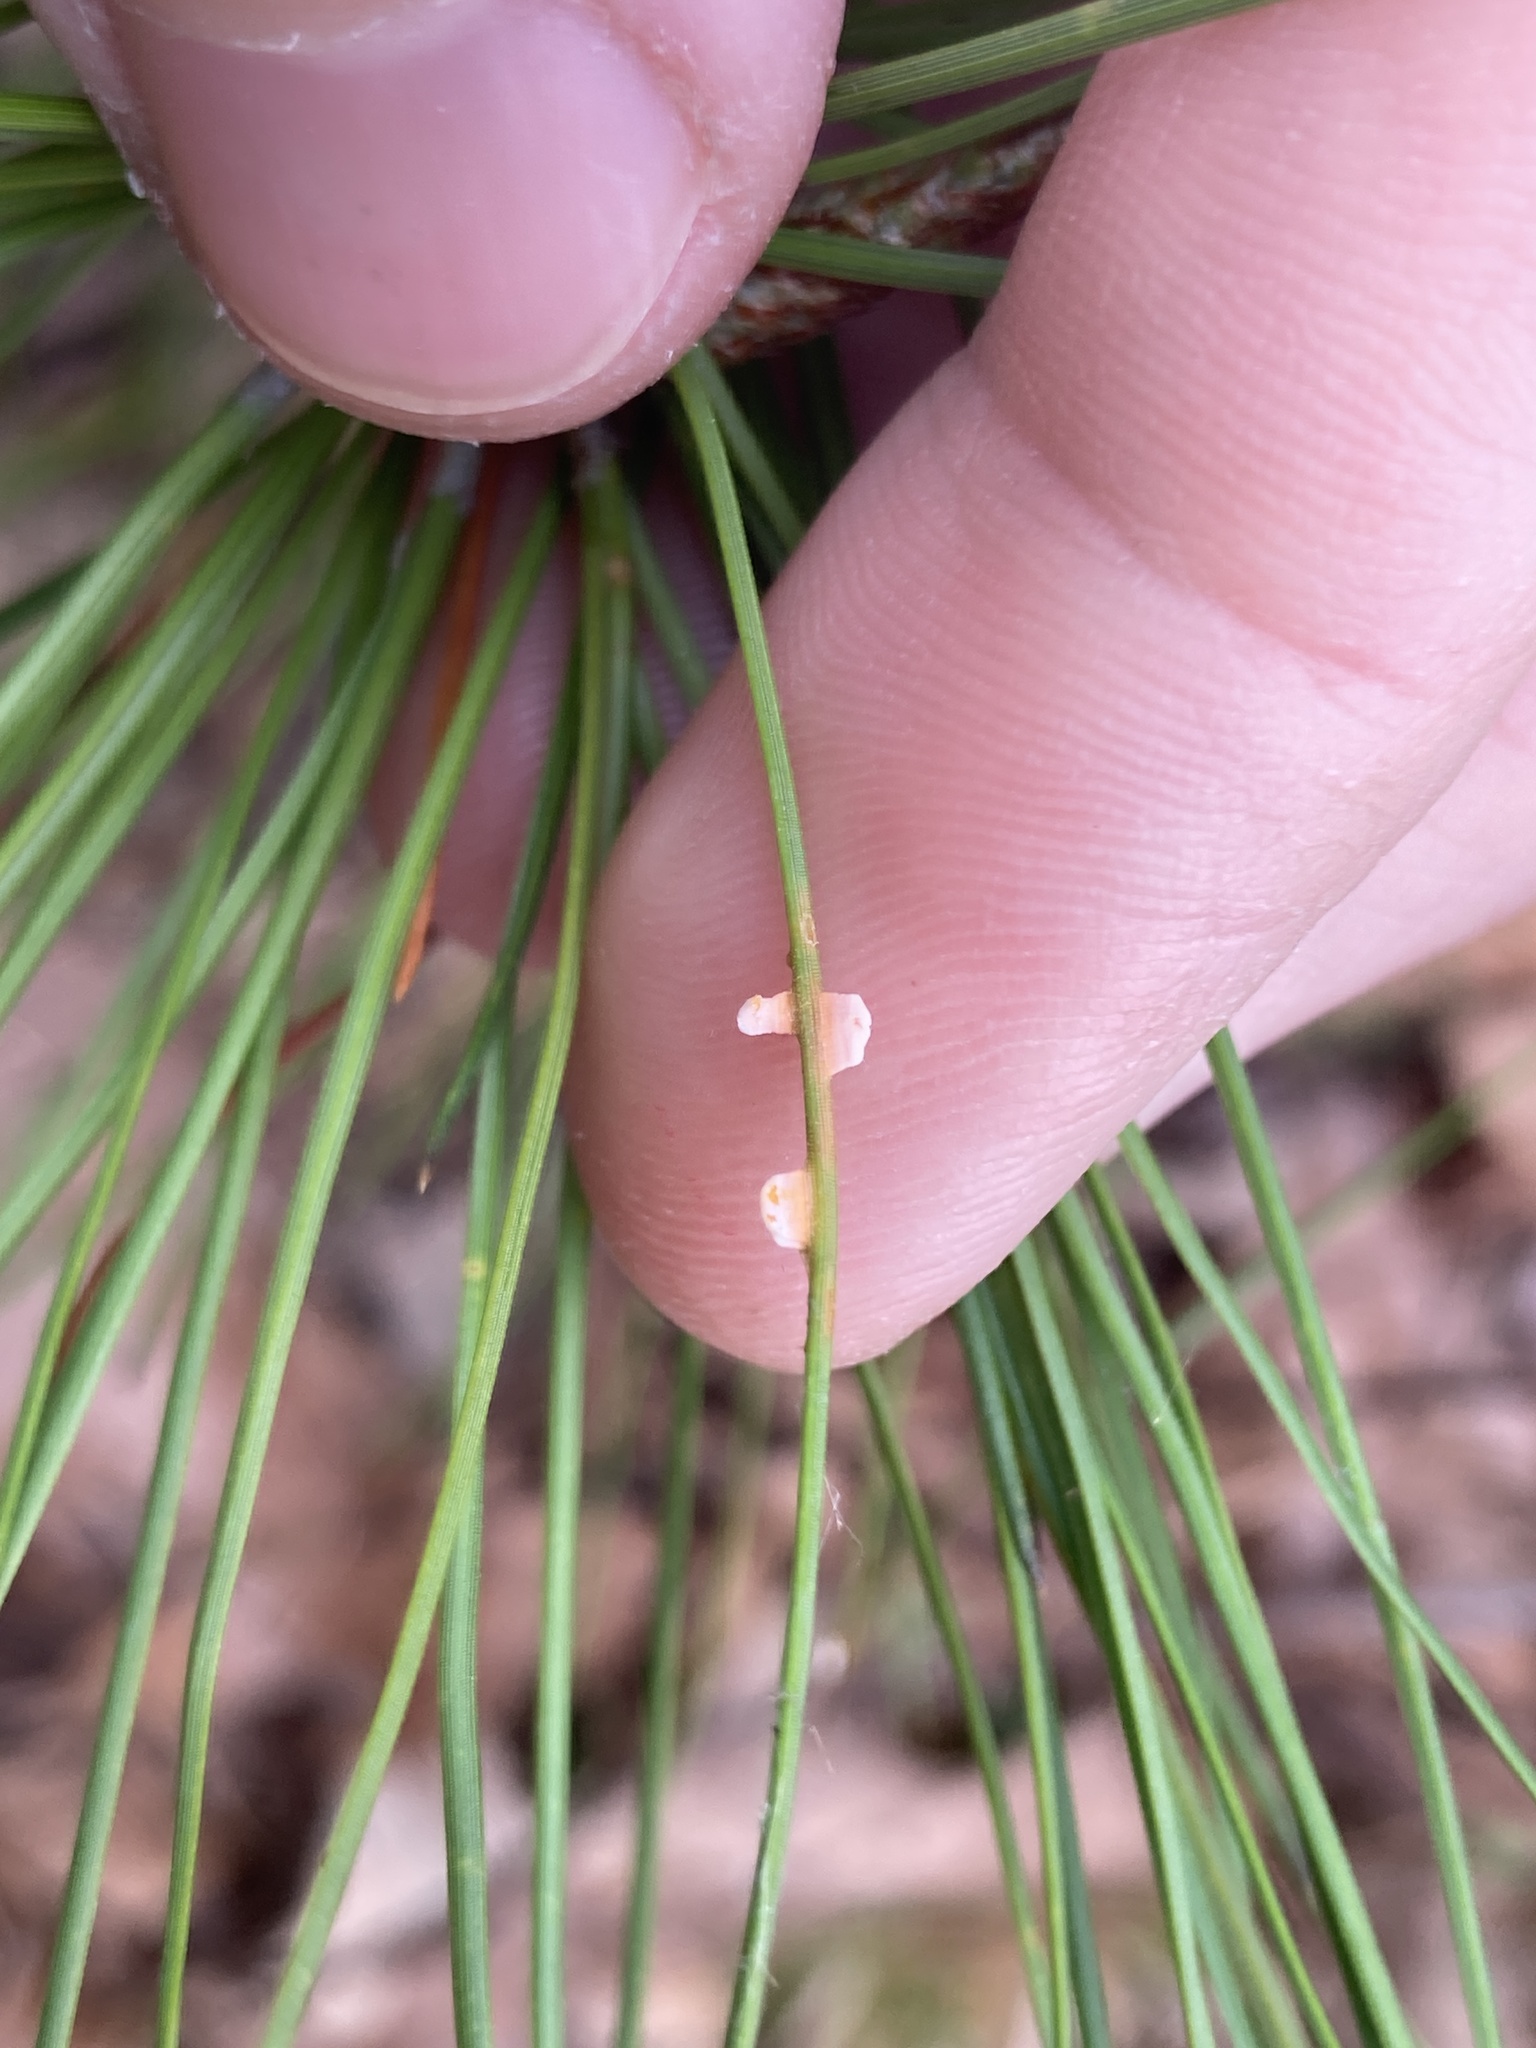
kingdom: Fungi
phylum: Basidiomycota
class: Pucciniomycetes
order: Pucciniales
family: Coleosporiaceae
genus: Coleosporium
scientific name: Coleosporium asterum
